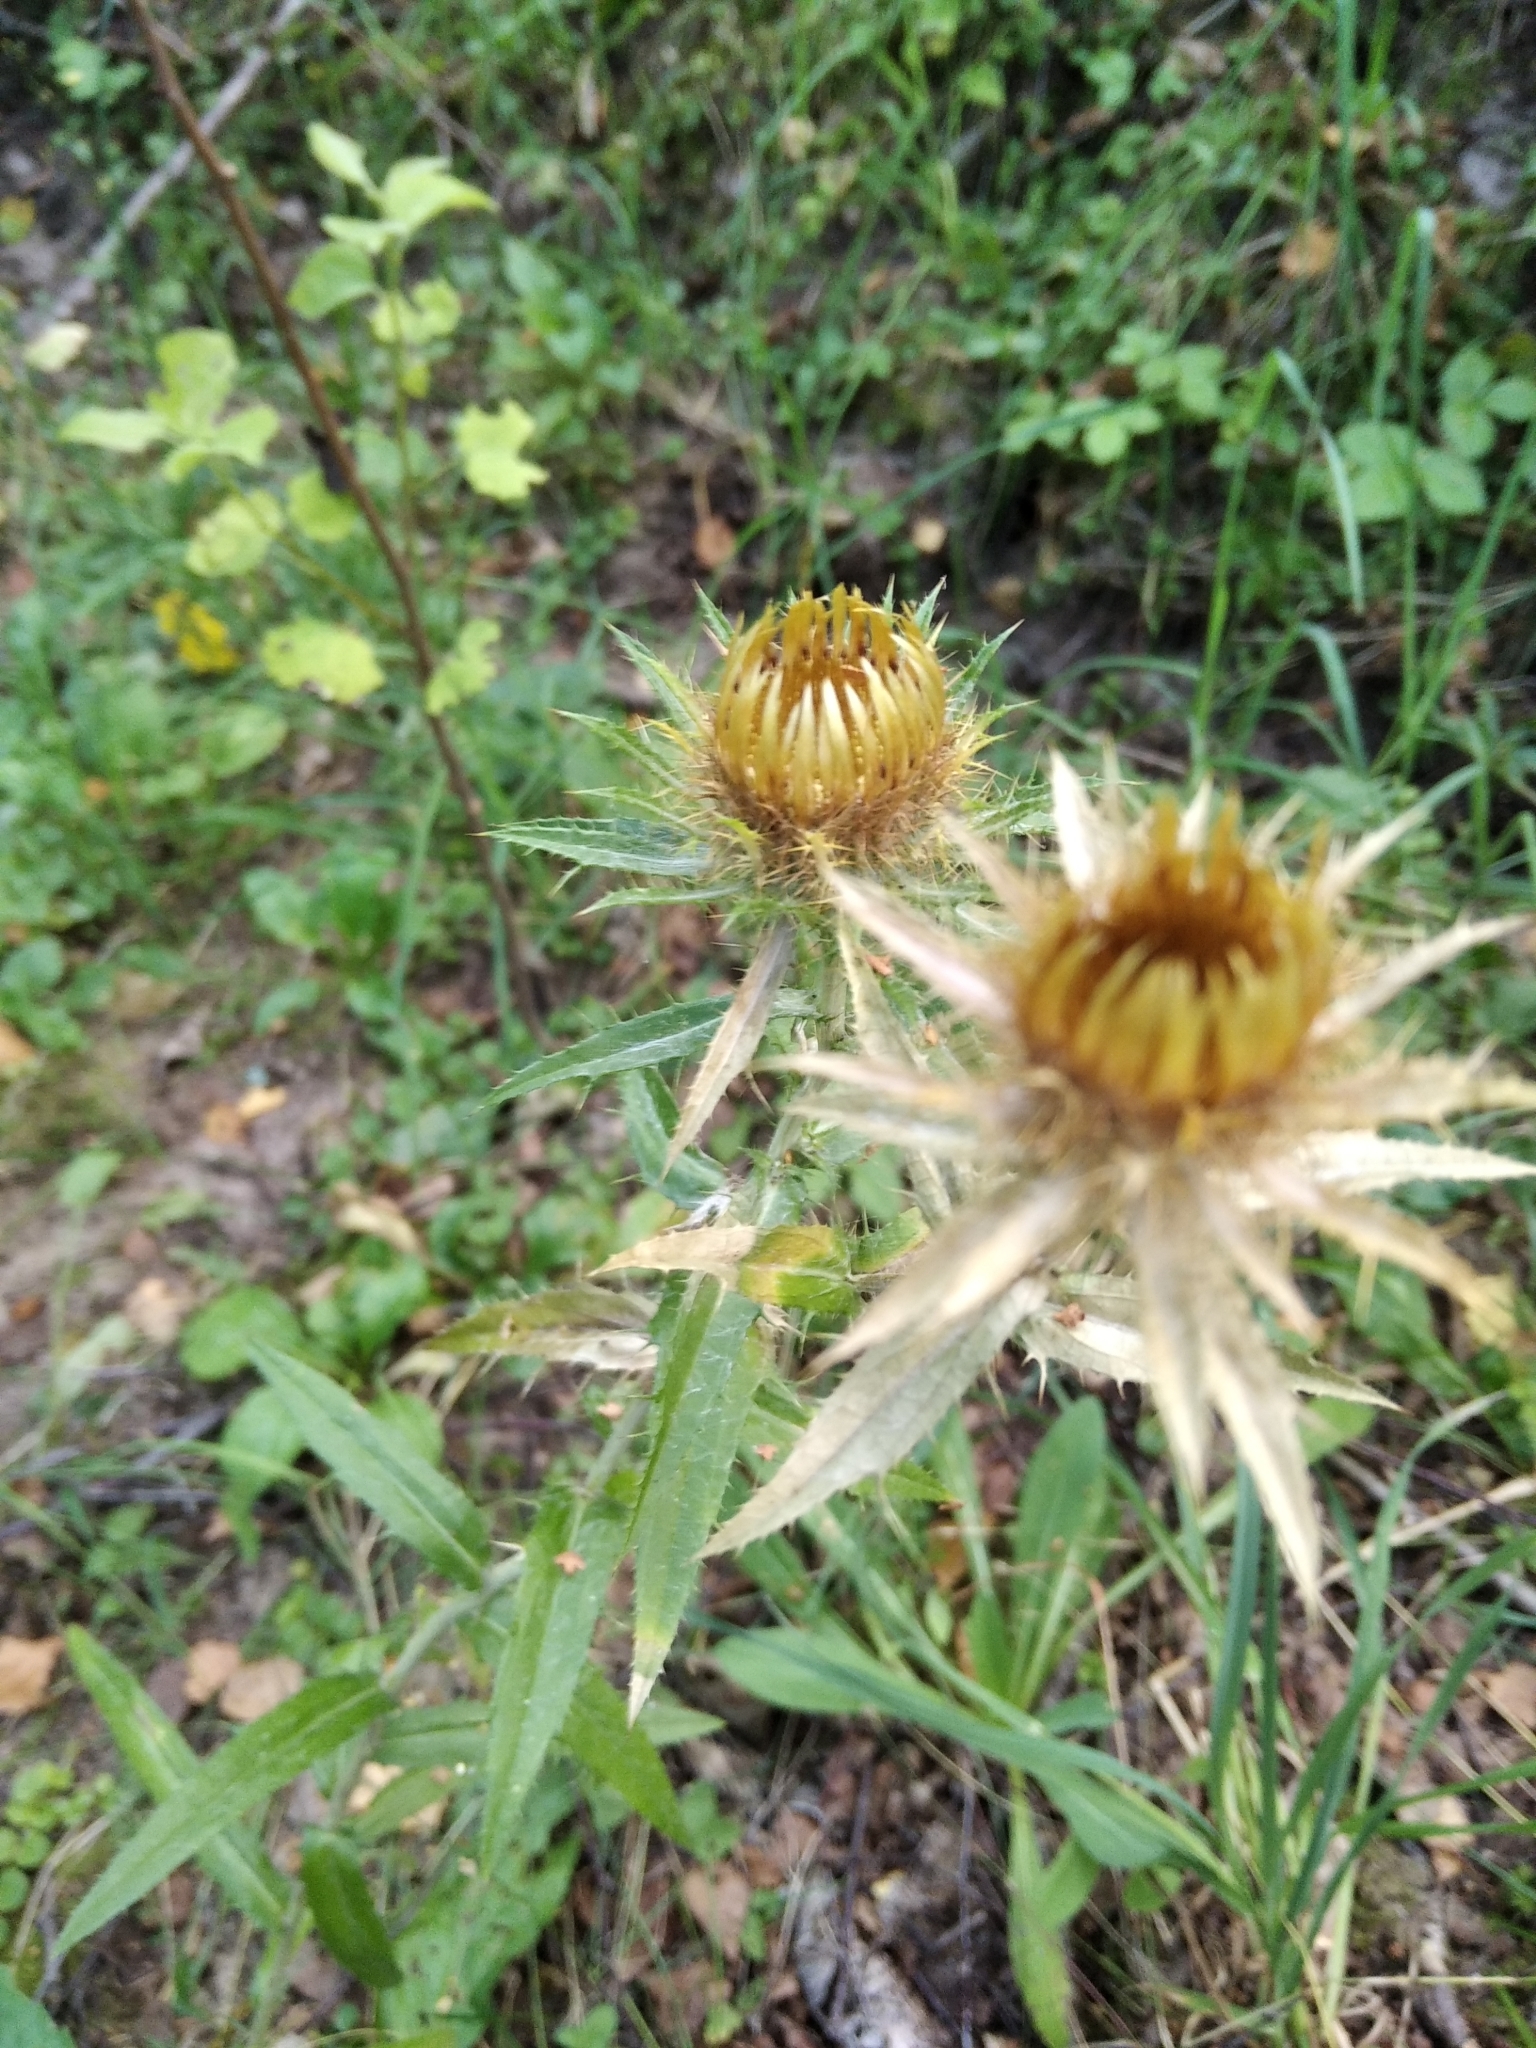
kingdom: Plantae
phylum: Tracheophyta
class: Magnoliopsida
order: Asterales
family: Asteraceae
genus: Carlina
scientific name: Carlina biebersteinii
